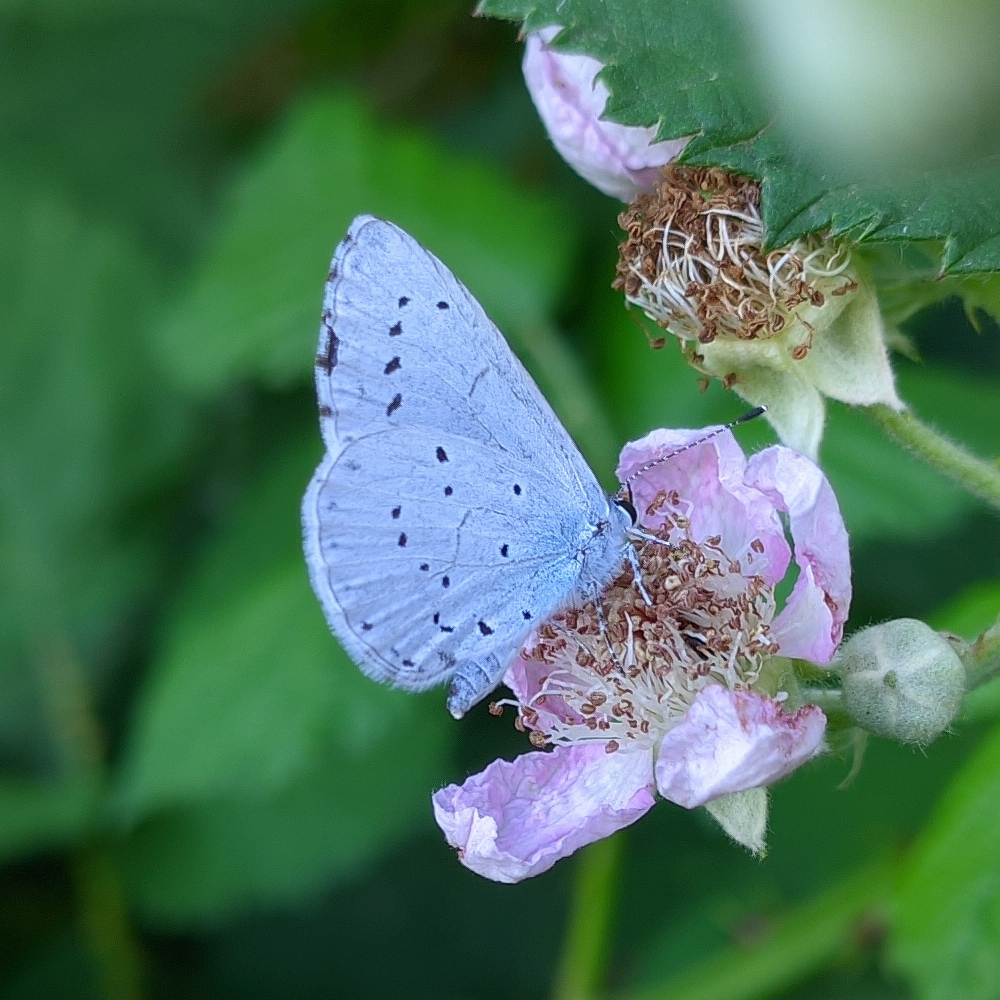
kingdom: Animalia
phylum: Arthropoda
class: Insecta
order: Lepidoptera
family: Lycaenidae
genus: Celastrina
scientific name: Celastrina argiolus
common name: Holly blue
